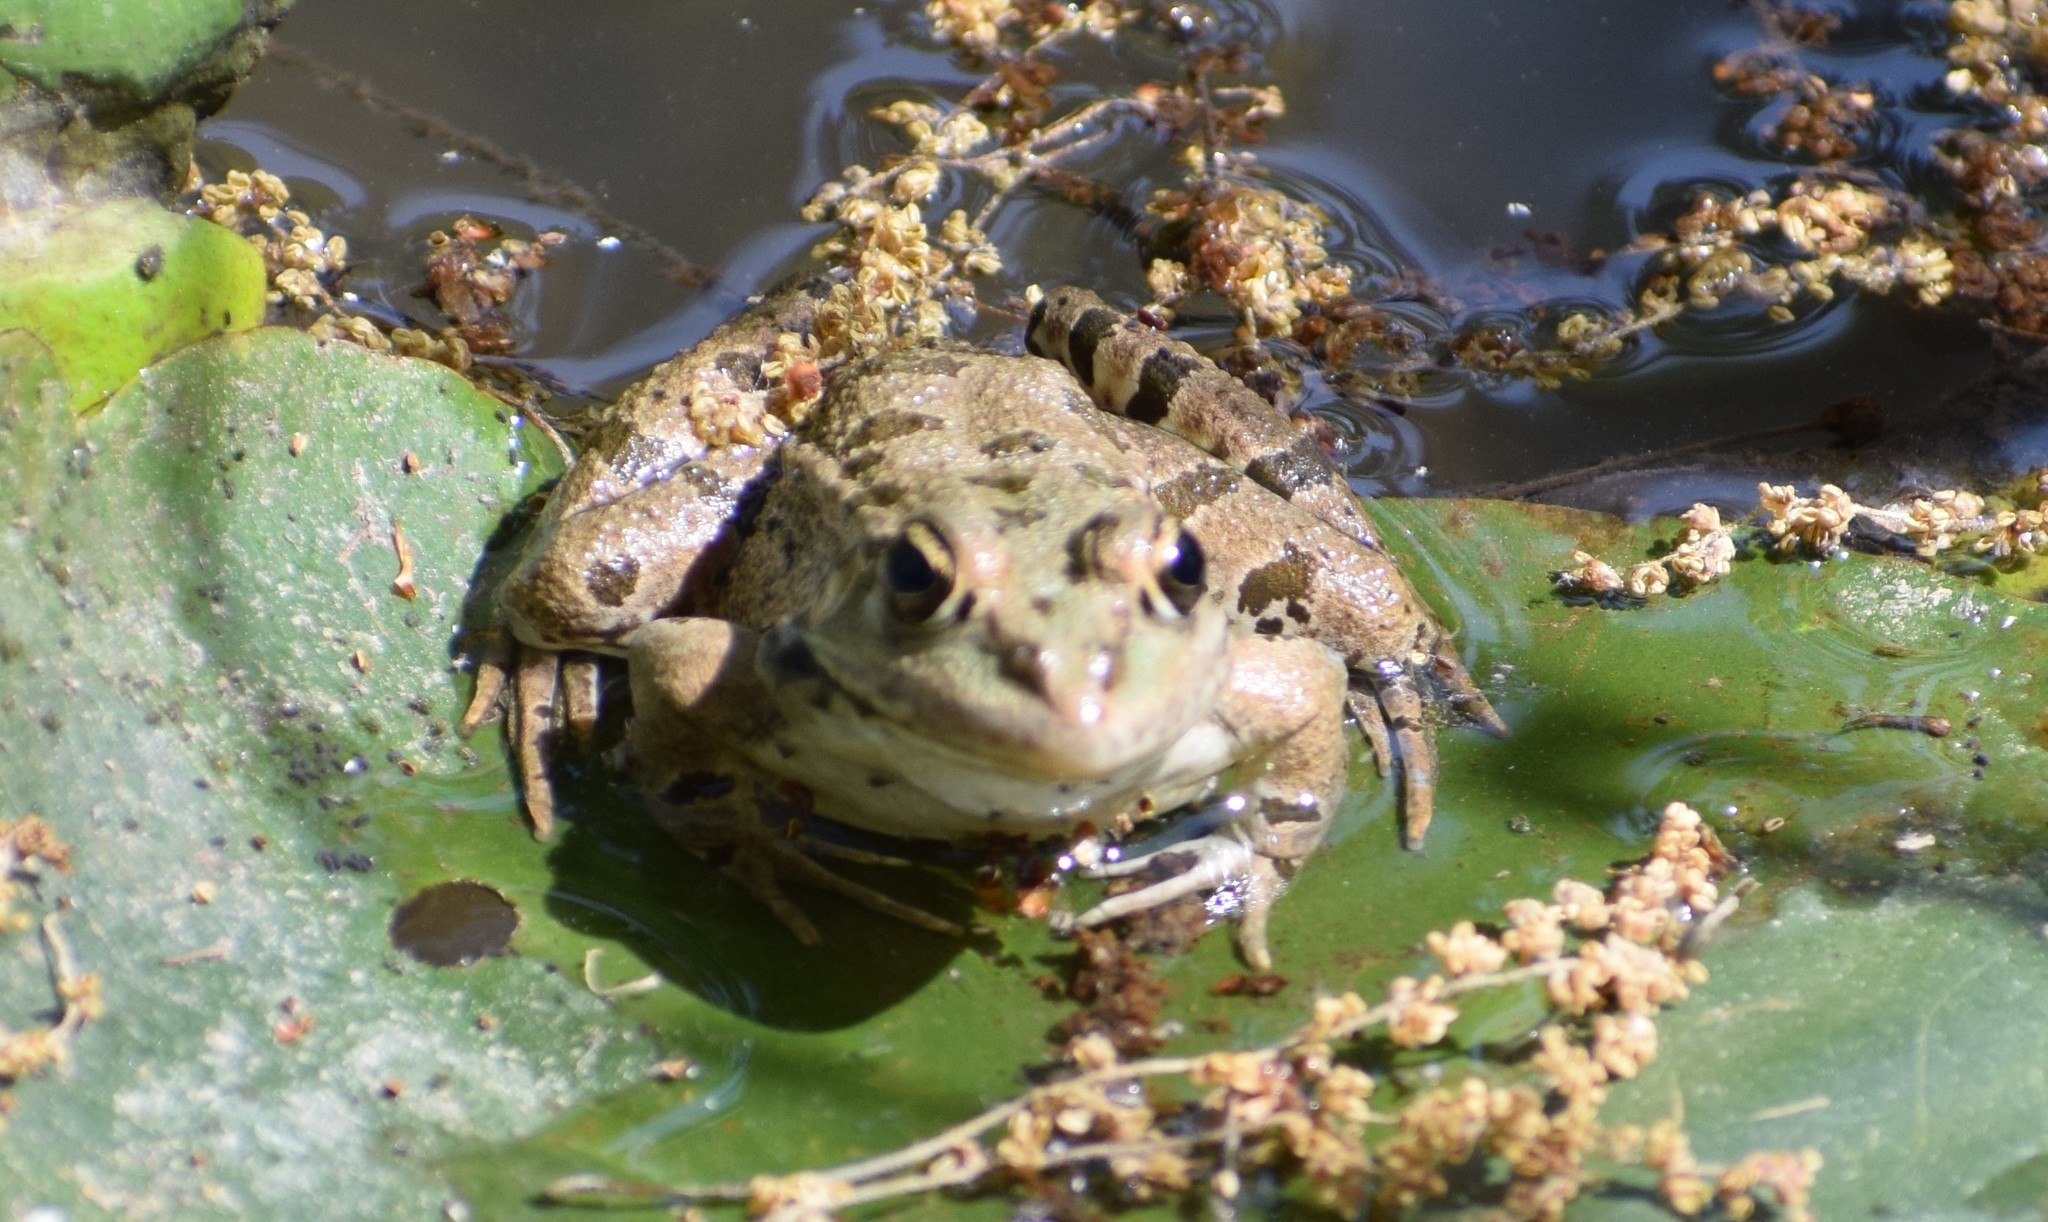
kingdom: Animalia
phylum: Chordata
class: Amphibia
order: Anura
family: Ranidae
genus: Pelophylax
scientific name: Pelophylax
